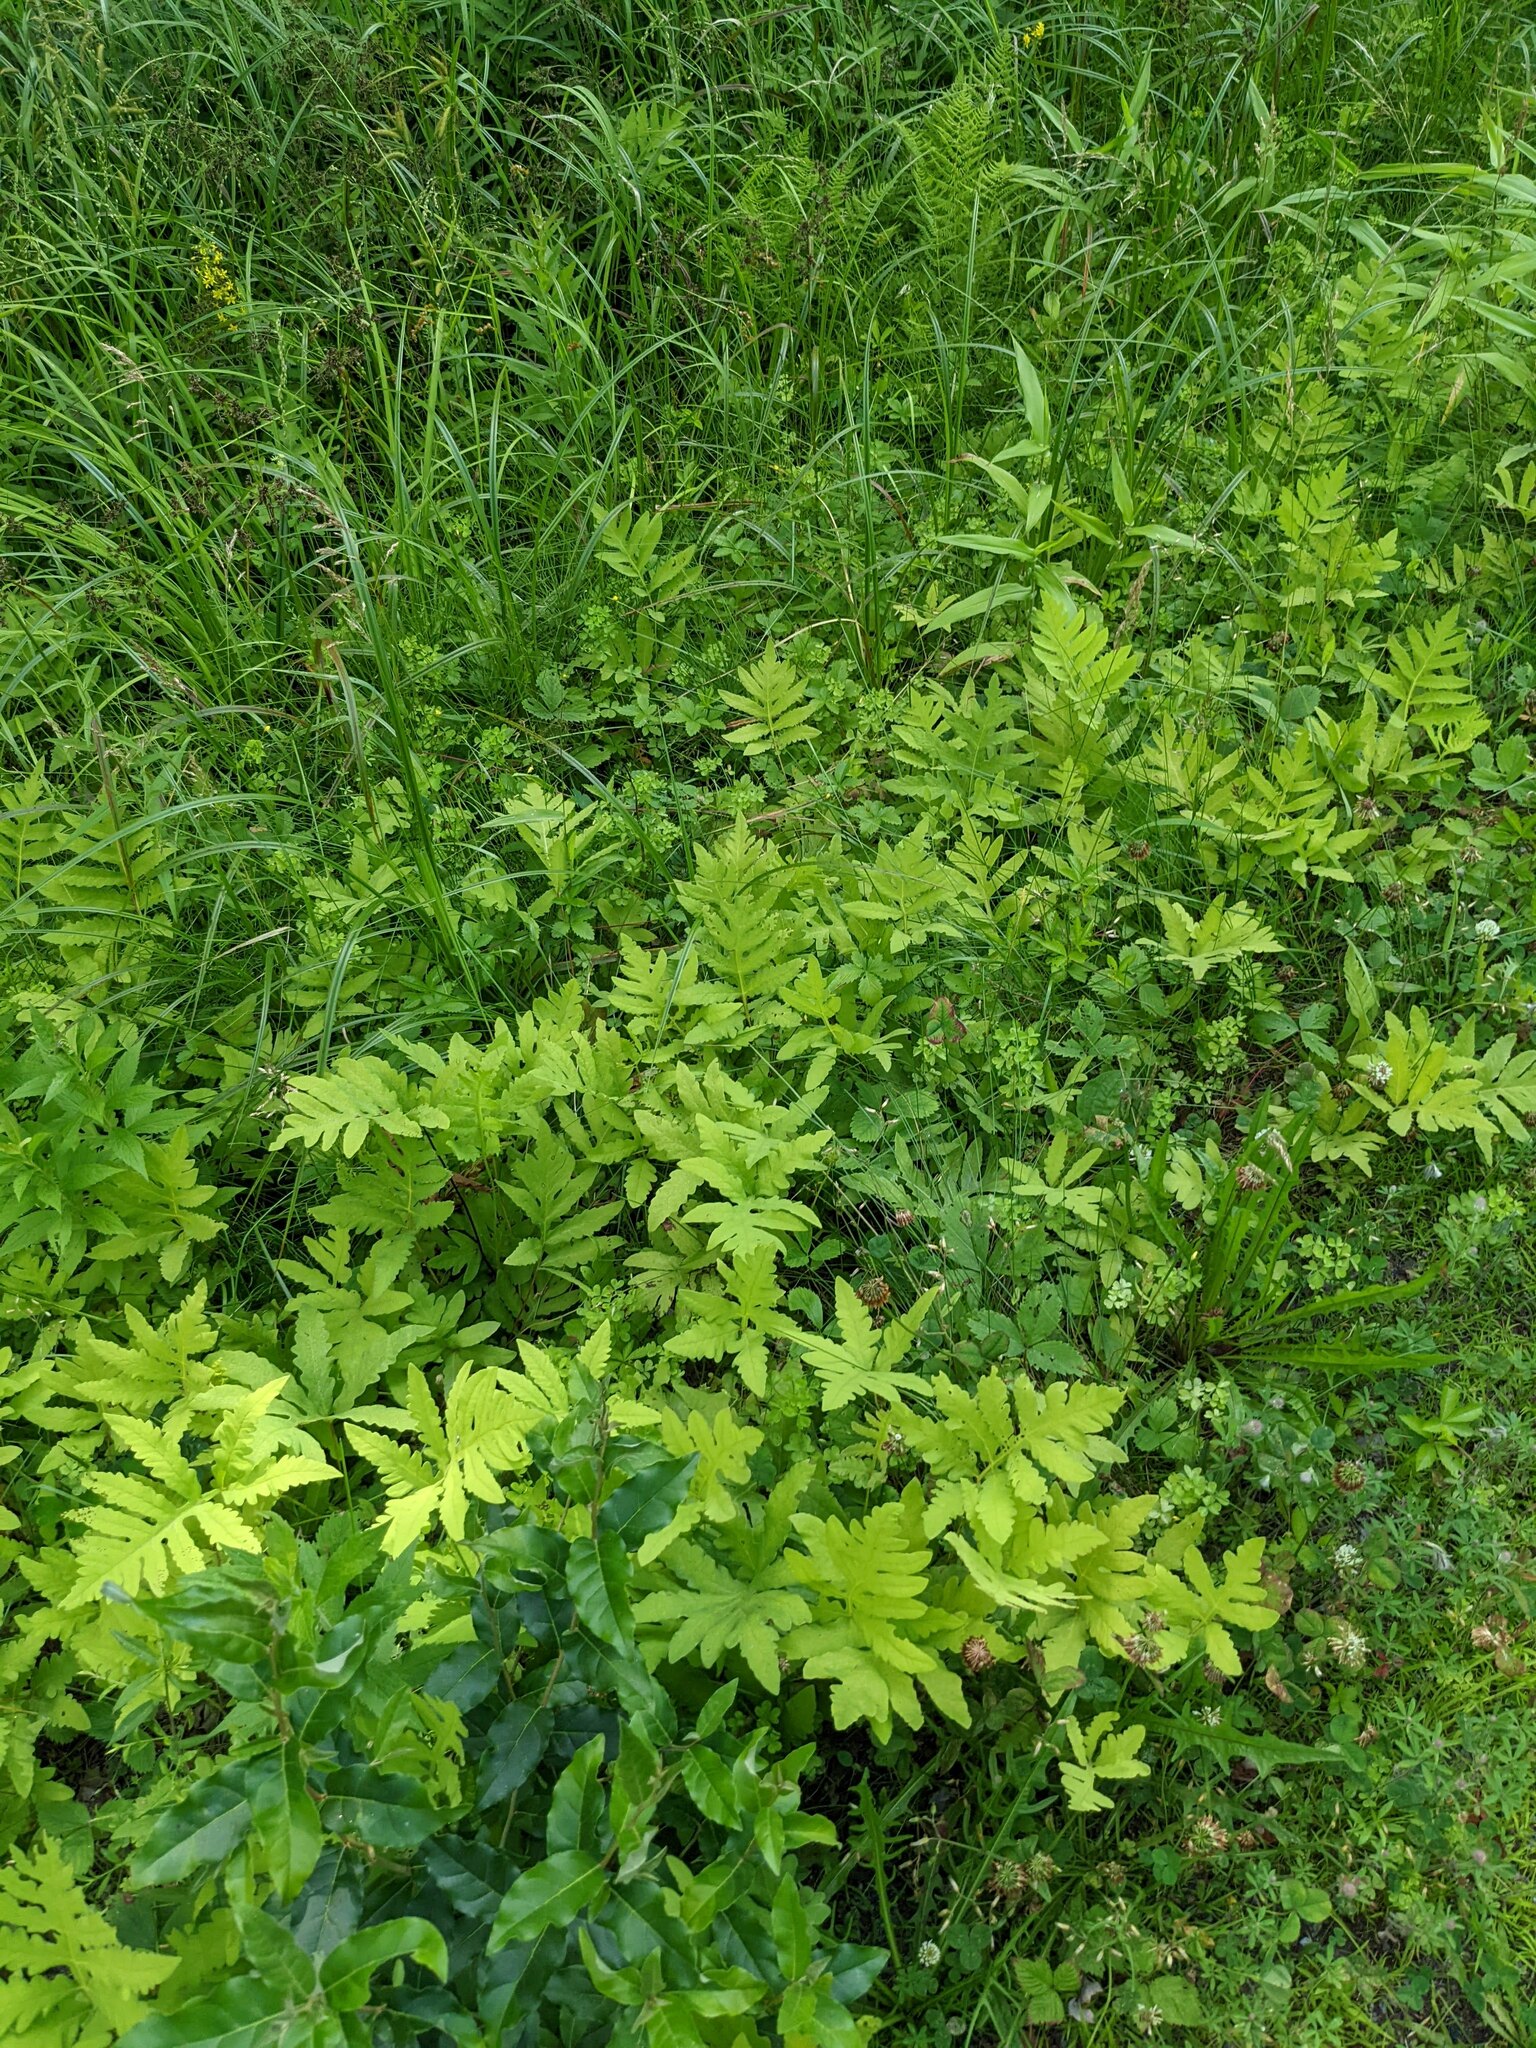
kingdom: Plantae
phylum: Tracheophyta
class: Polypodiopsida
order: Polypodiales
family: Onocleaceae
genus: Onoclea
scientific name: Onoclea sensibilis
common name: Sensitive fern
